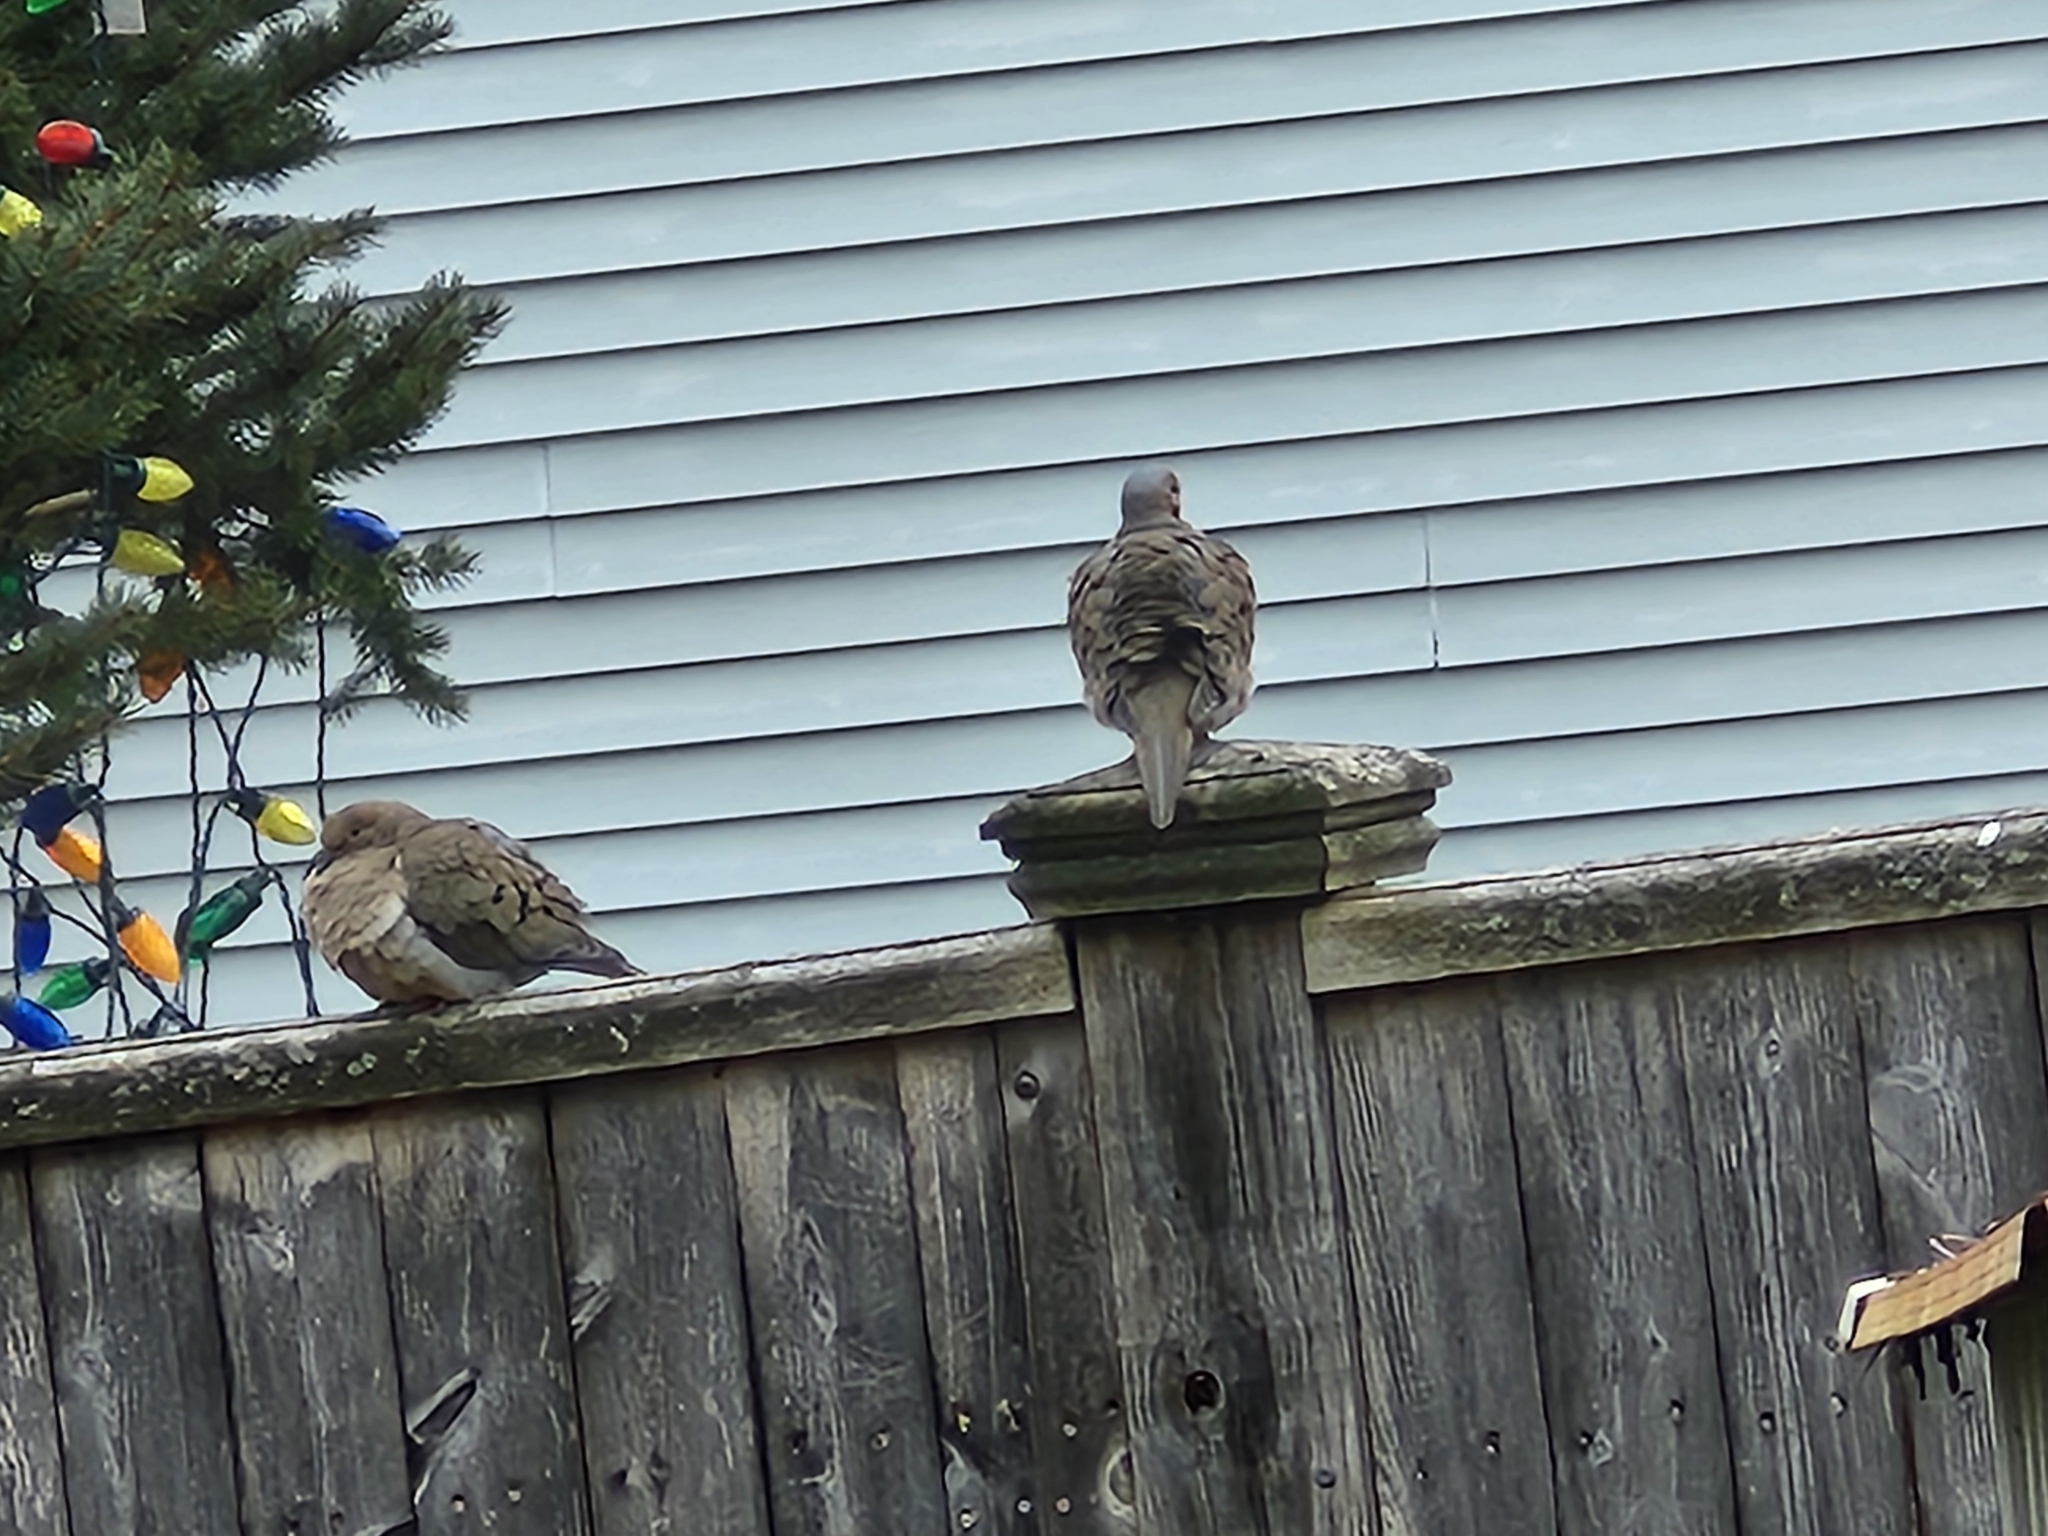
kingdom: Animalia
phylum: Chordata
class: Aves
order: Columbiformes
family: Columbidae
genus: Zenaida
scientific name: Zenaida macroura
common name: Mourning dove
